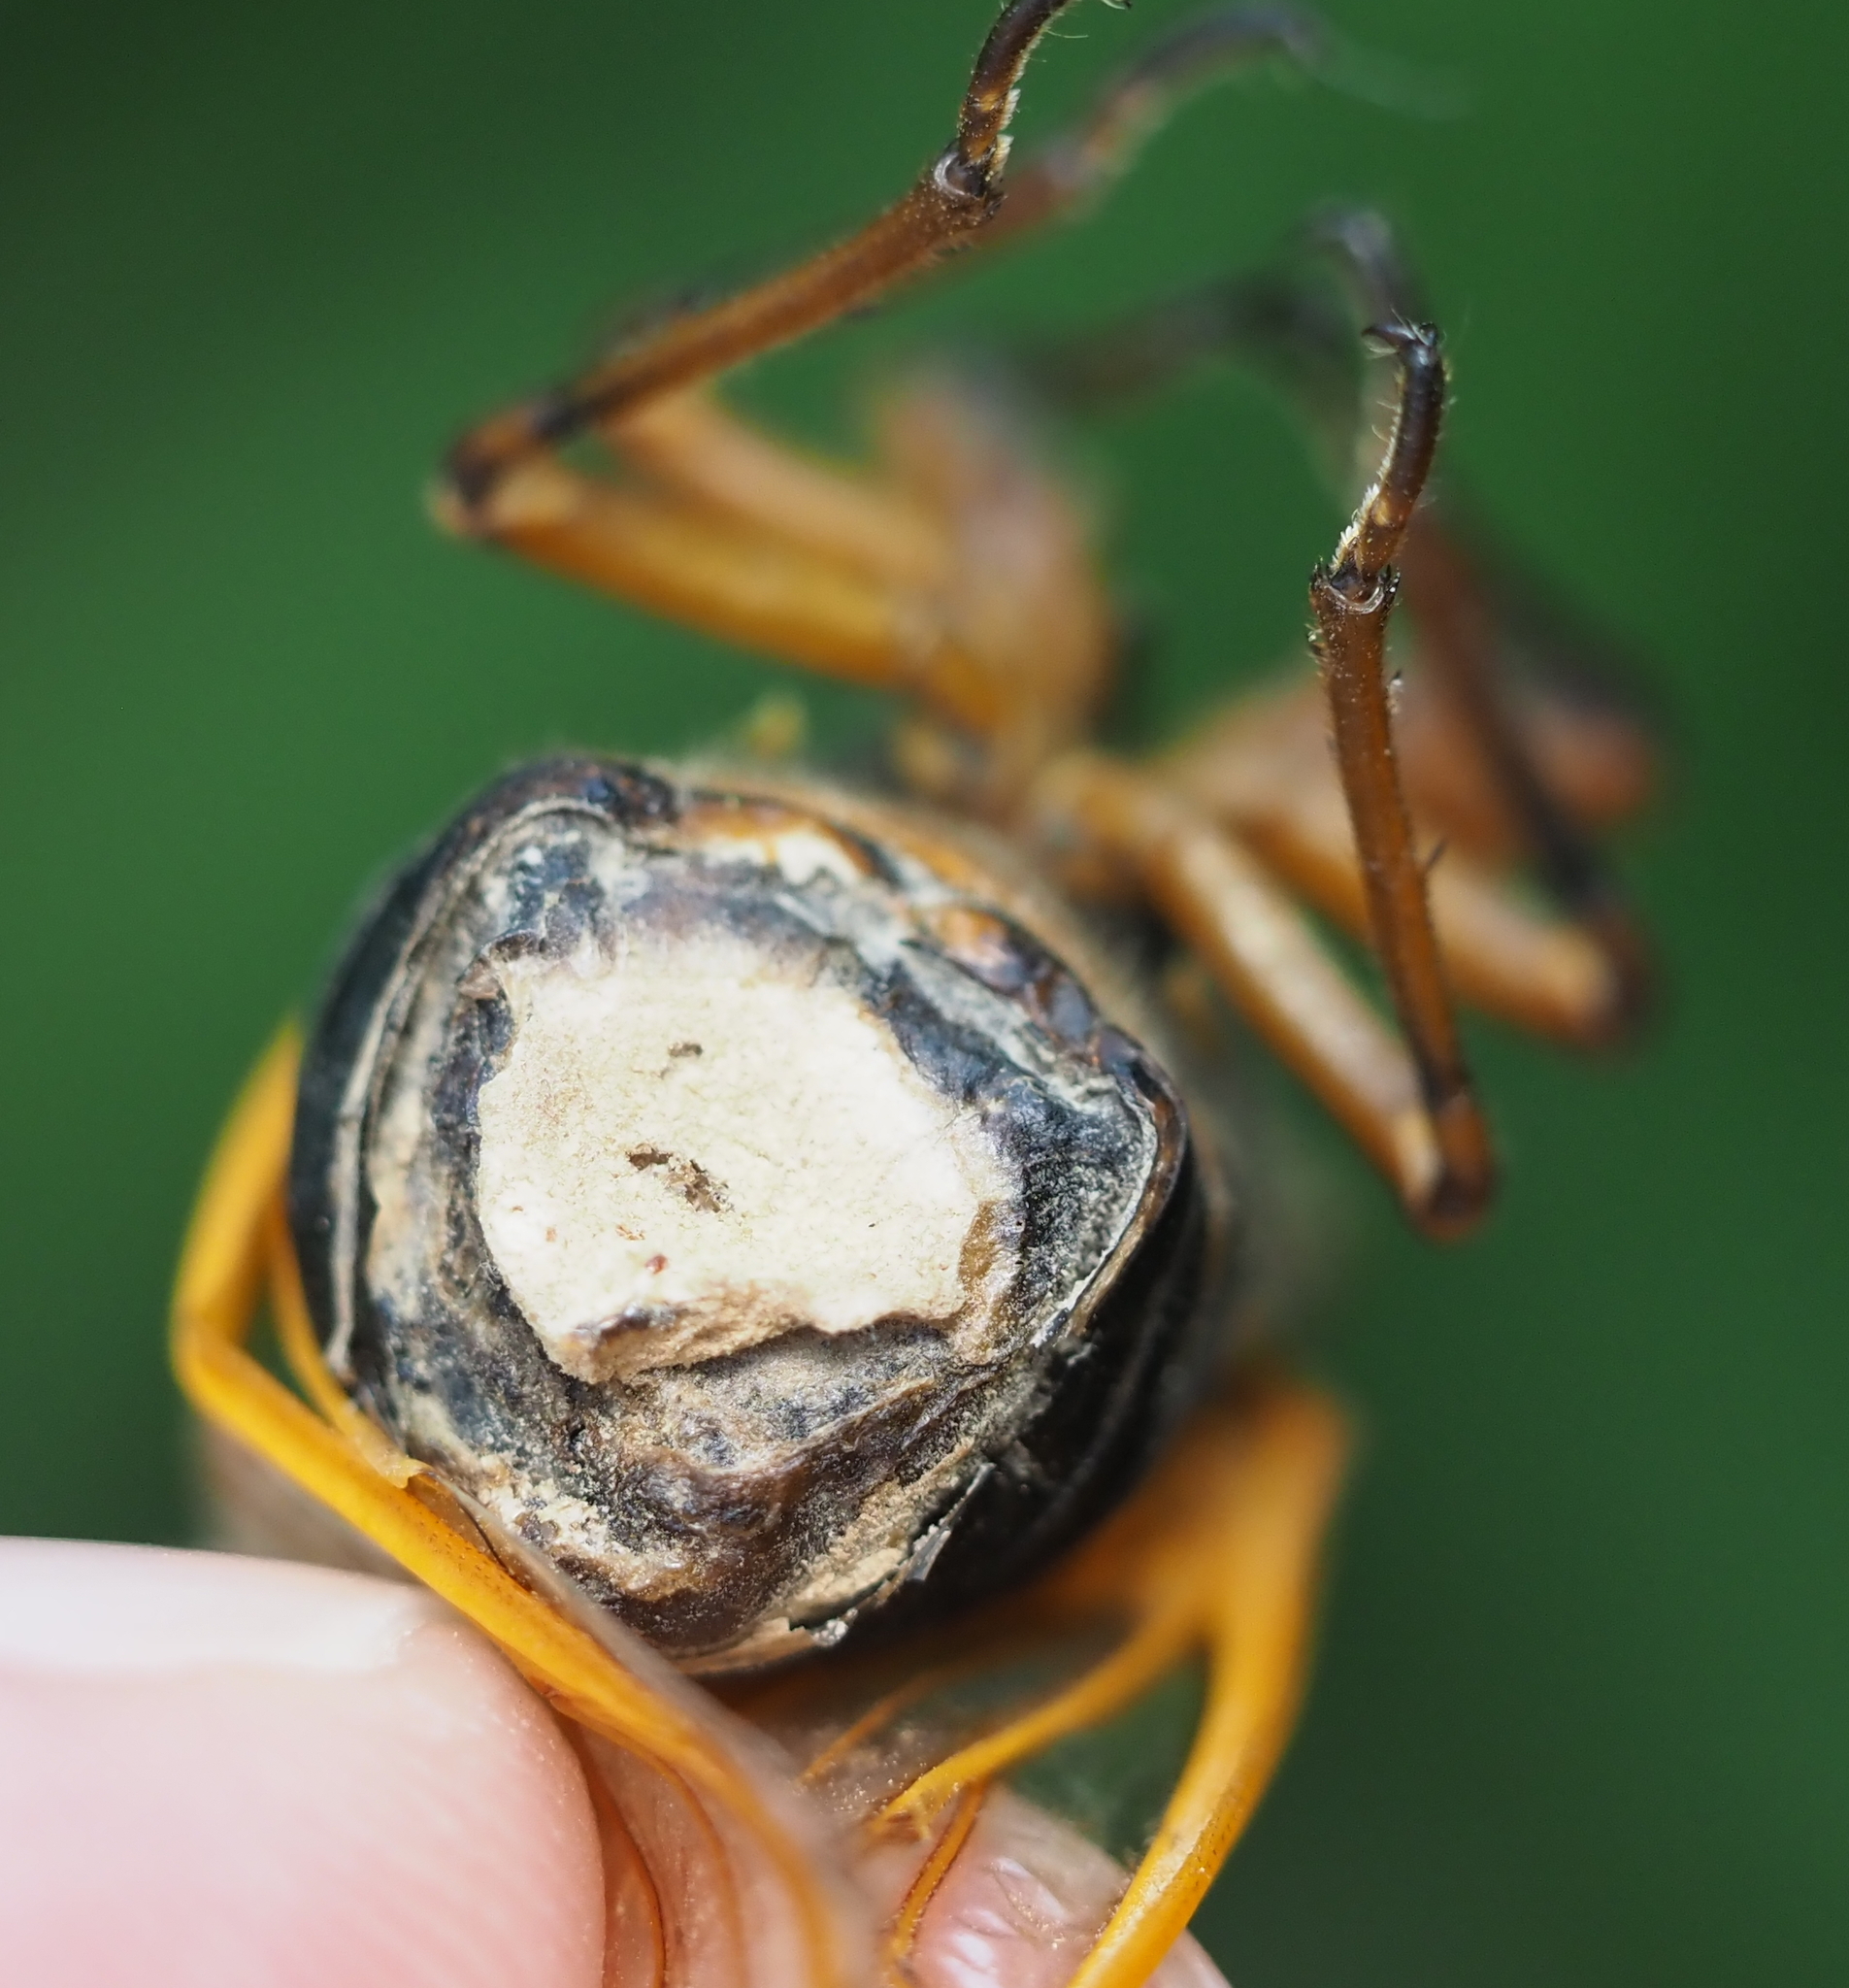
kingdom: Fungi
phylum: Entomophthoromycota
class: Entomophthoromycetes
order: Entomophthorales
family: Entomophthoraceae
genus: Massospora
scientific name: Massospora cicadina
